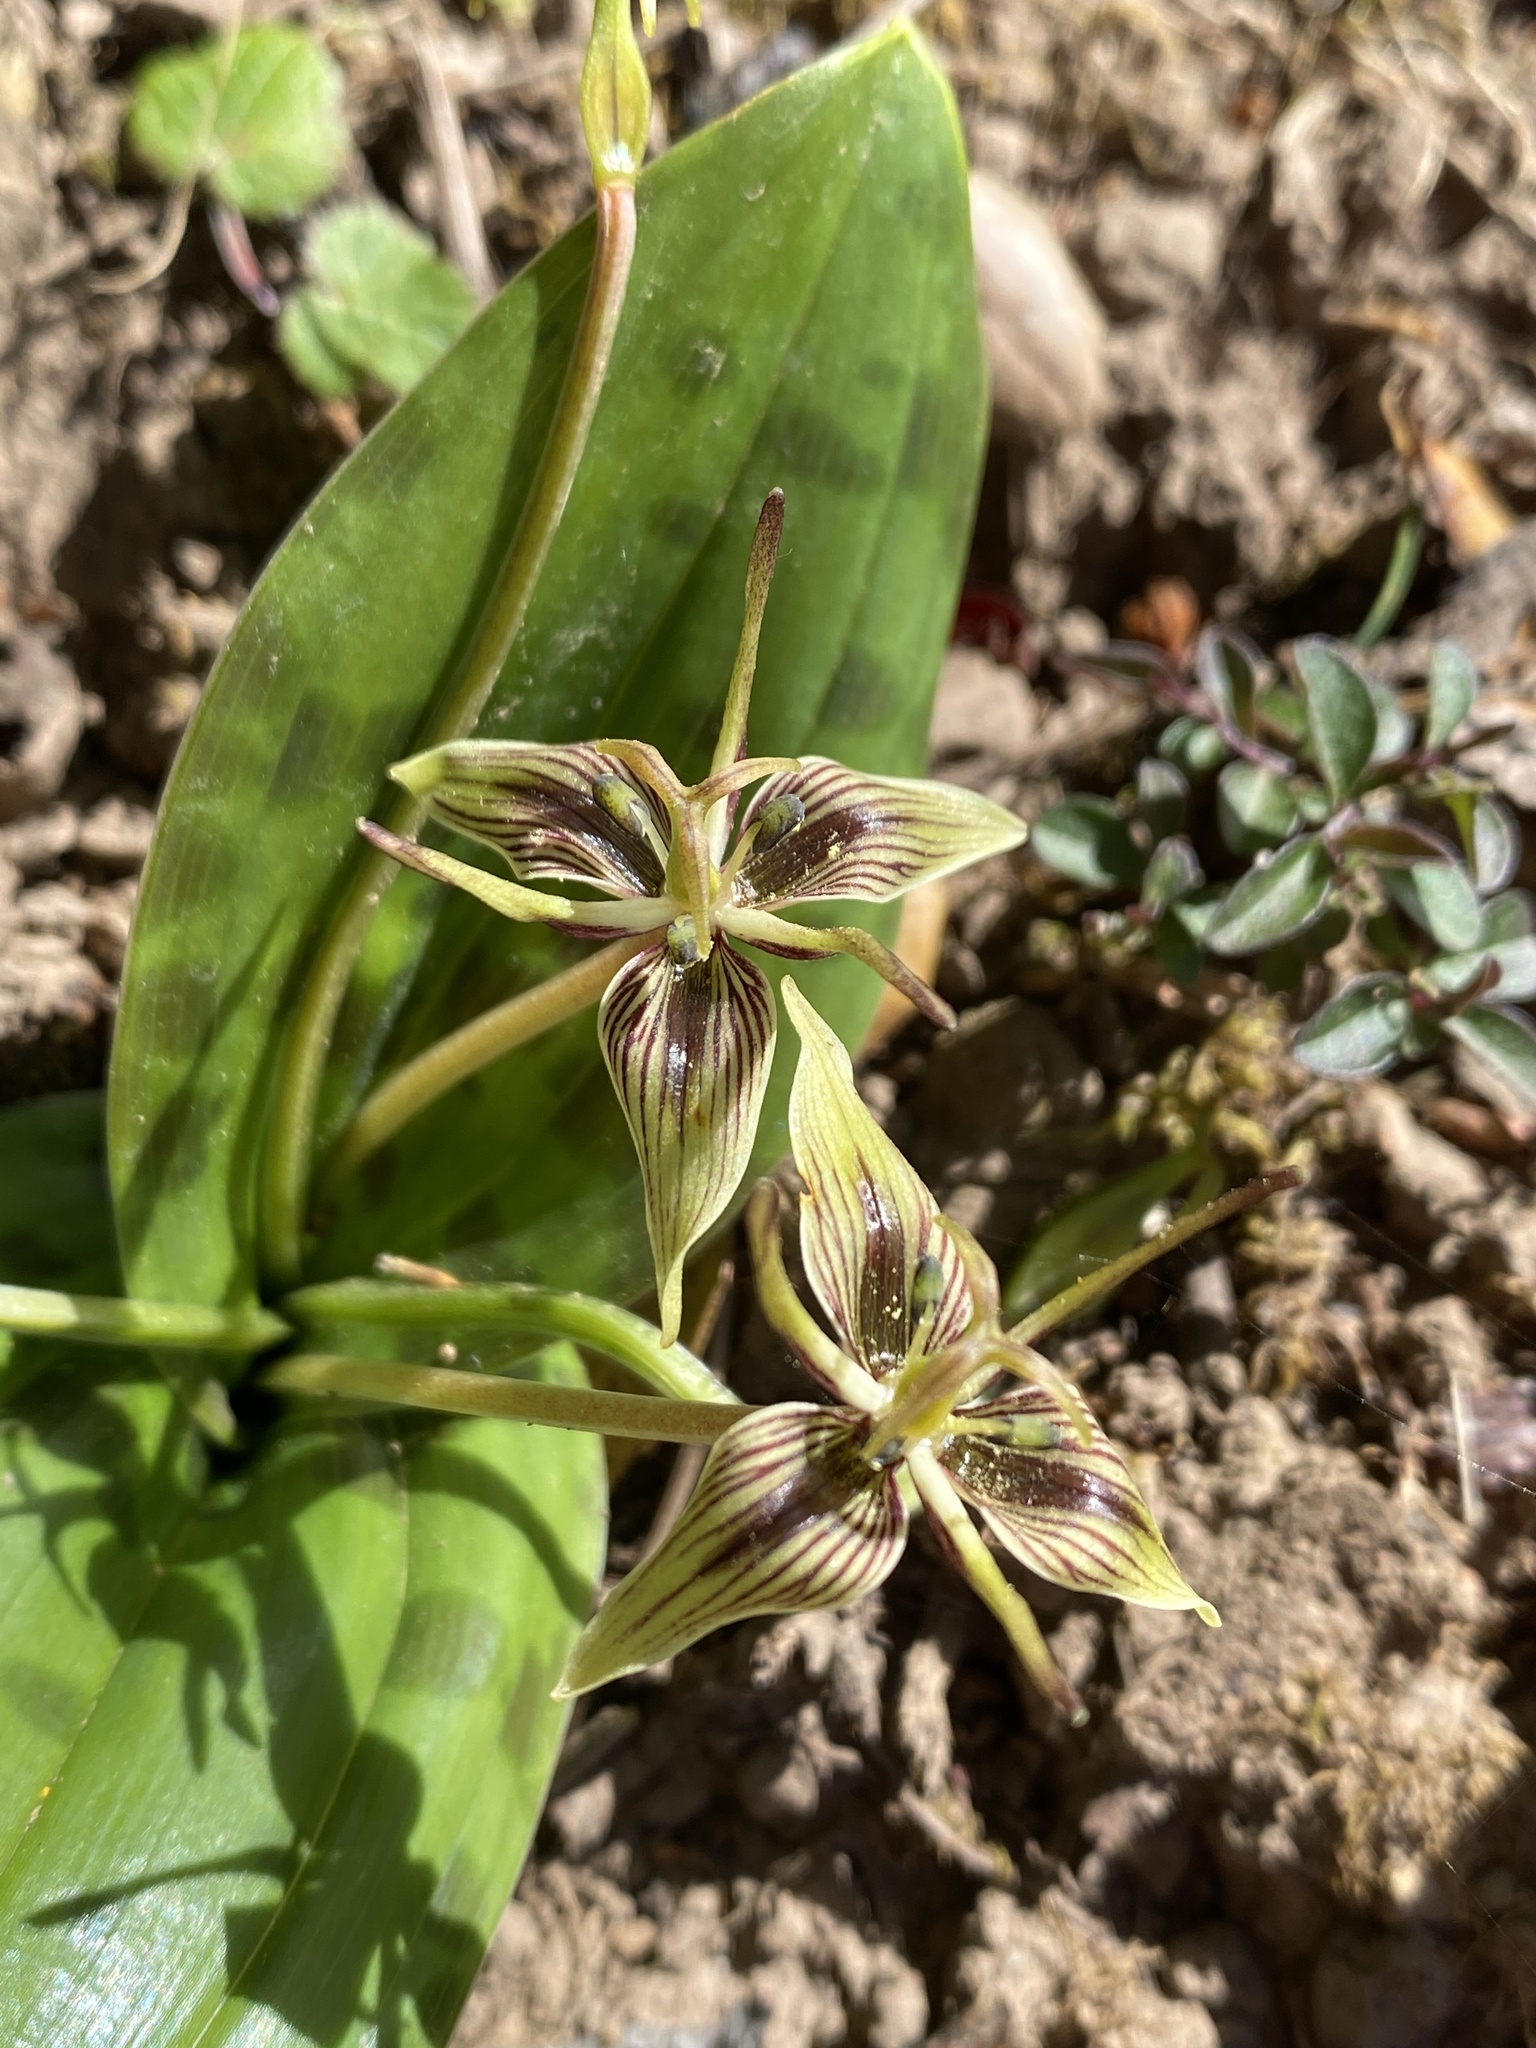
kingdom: Plantae
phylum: Tracheophyta
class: Liliopsida
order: Liliales
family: Liliaceae
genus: Scoliopus
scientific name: Scoliopus bigelovii
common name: Foetid adder's-tongue
